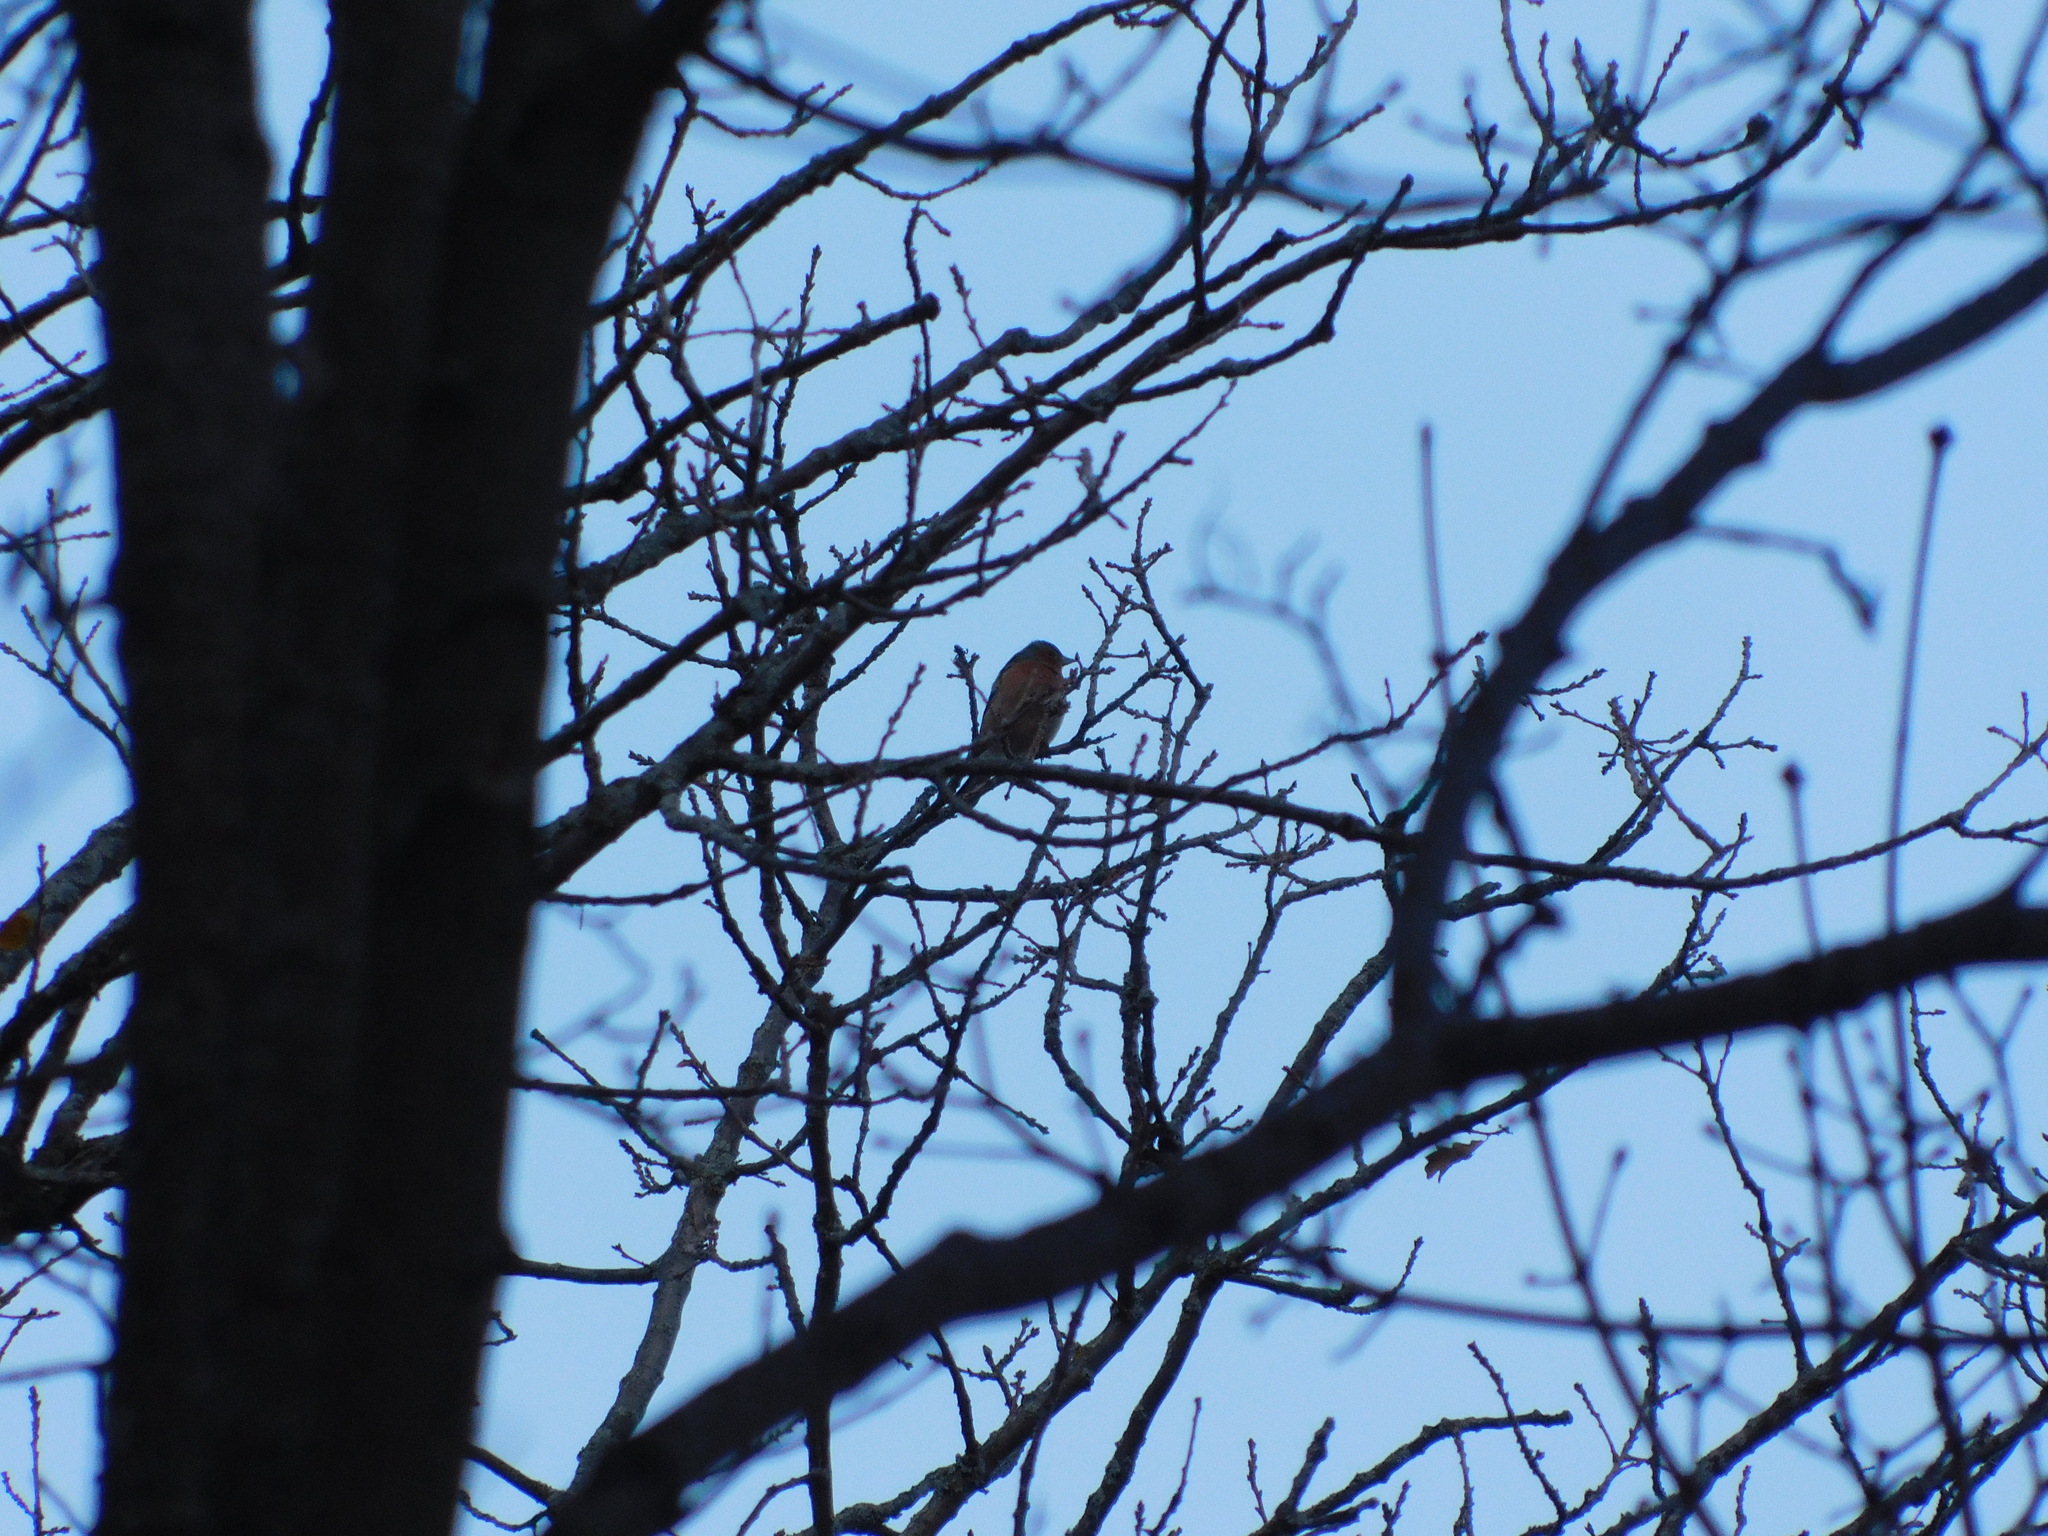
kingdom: Animalia
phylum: Chordata
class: Aves
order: Passeriformes
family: Fringillidae
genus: Fringilla
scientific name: Fringilla coelebs
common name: Common chaffinch
